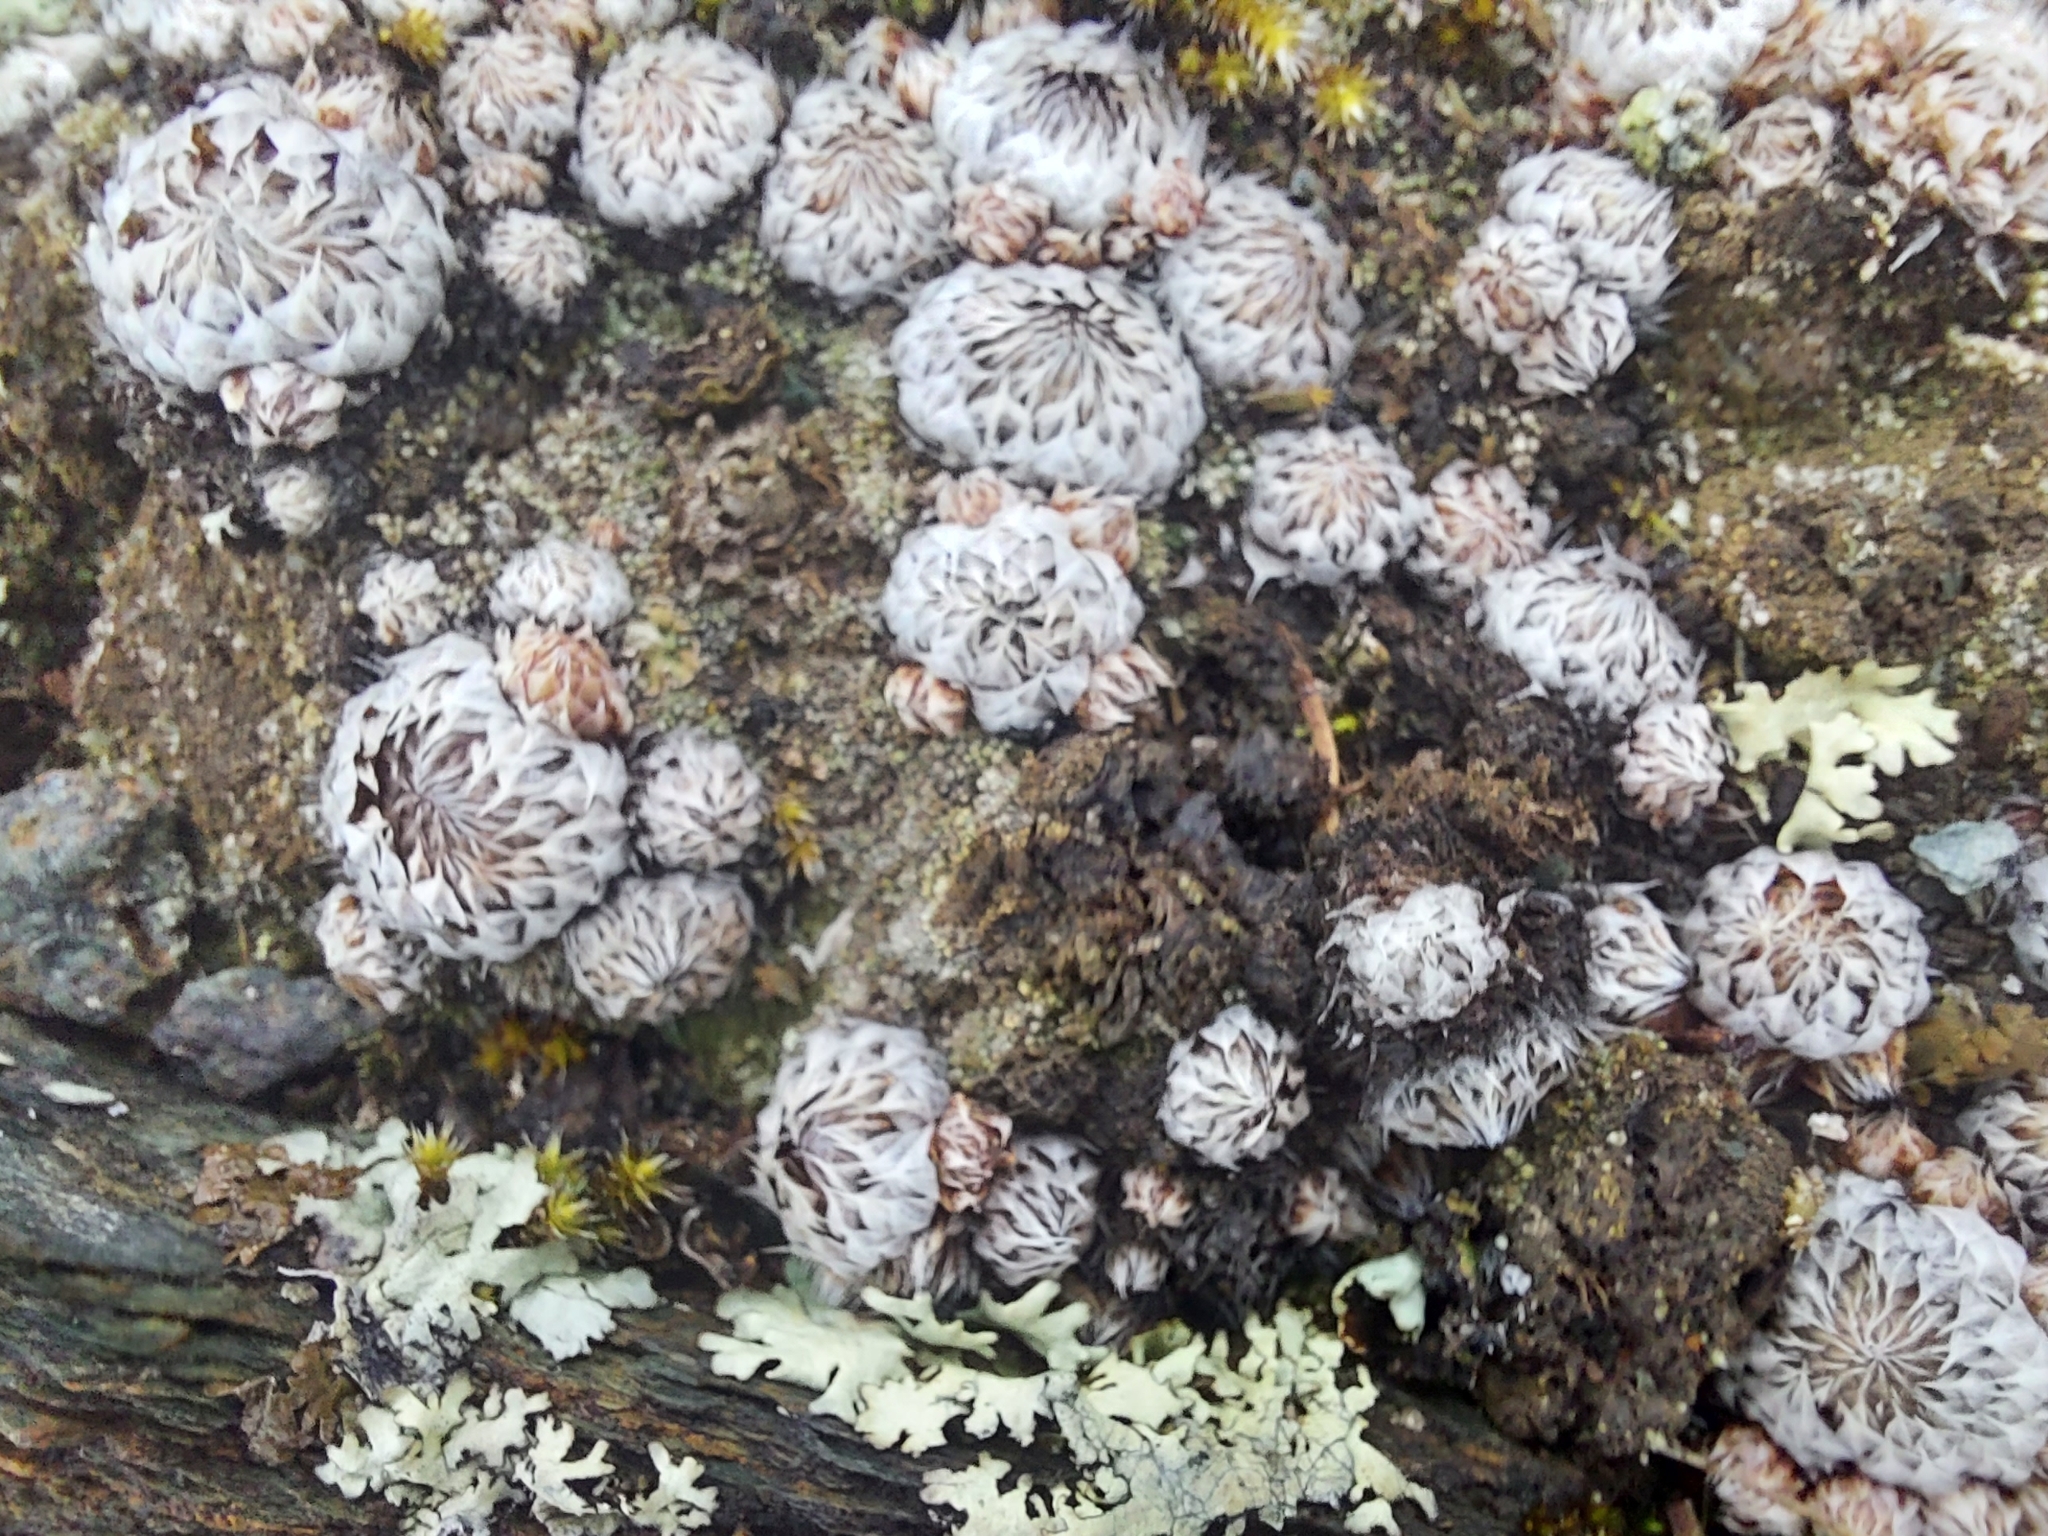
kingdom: Plantae
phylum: Tracheophyta
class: Magnoliopsida
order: Saxifragales
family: Crassulaceae
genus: Orostachys
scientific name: Orostachys spinosa
